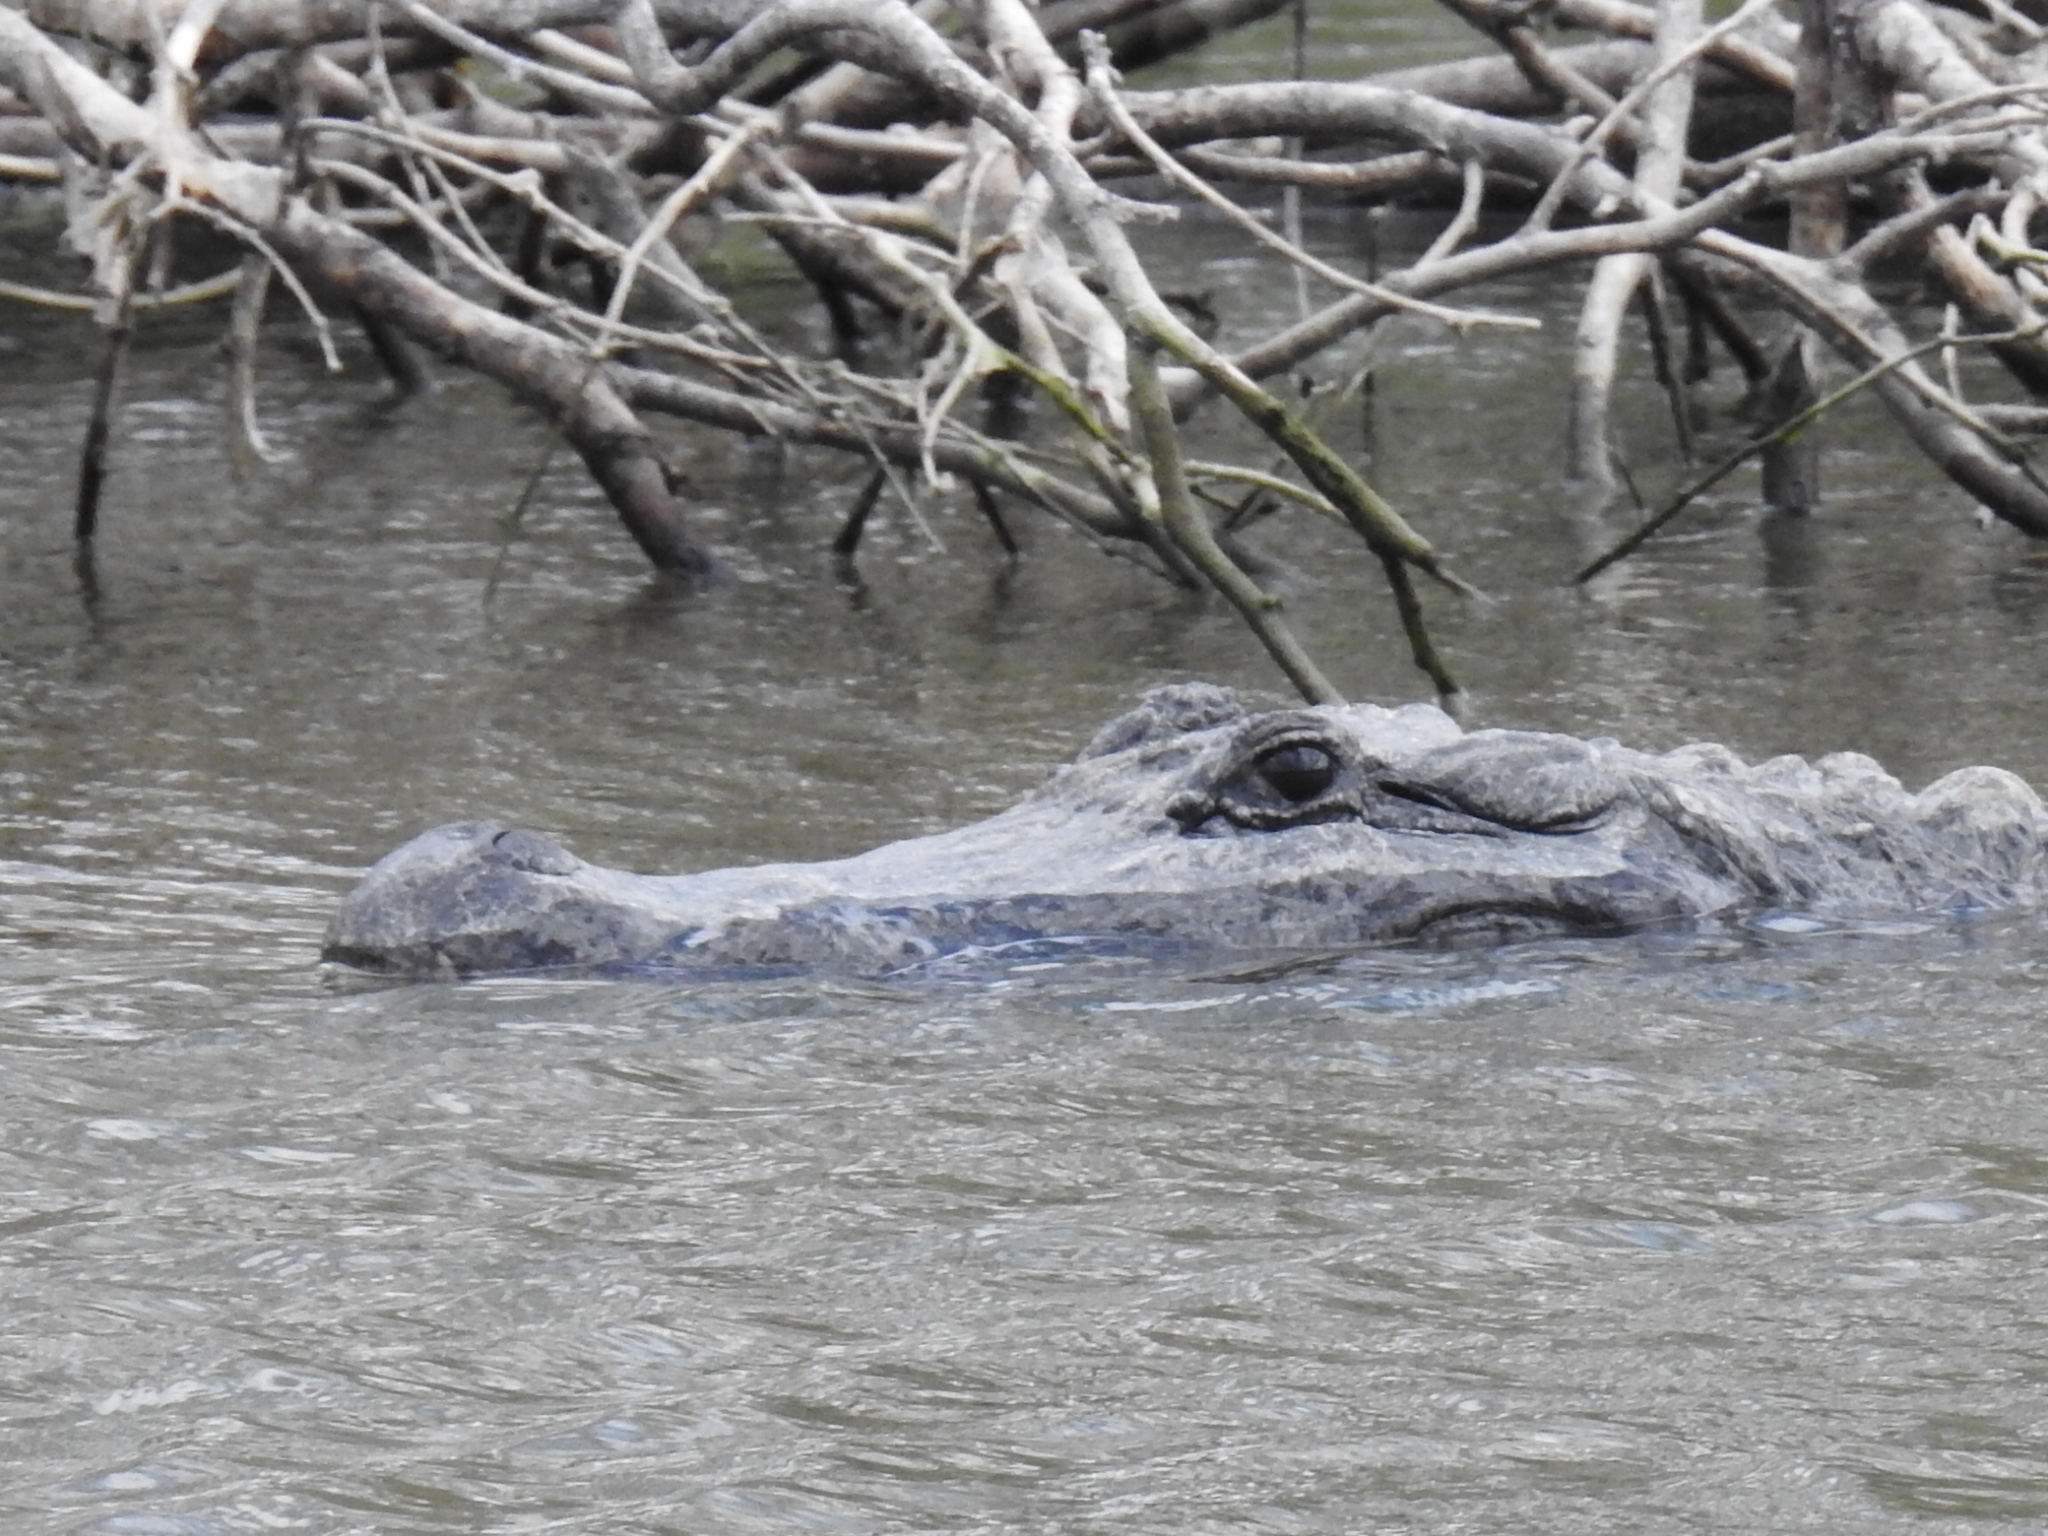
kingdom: Animalia
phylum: Chordata
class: Crocodylia
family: Alligatoridae
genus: Alligator
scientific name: Alligator mississippiensis
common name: American alligator
